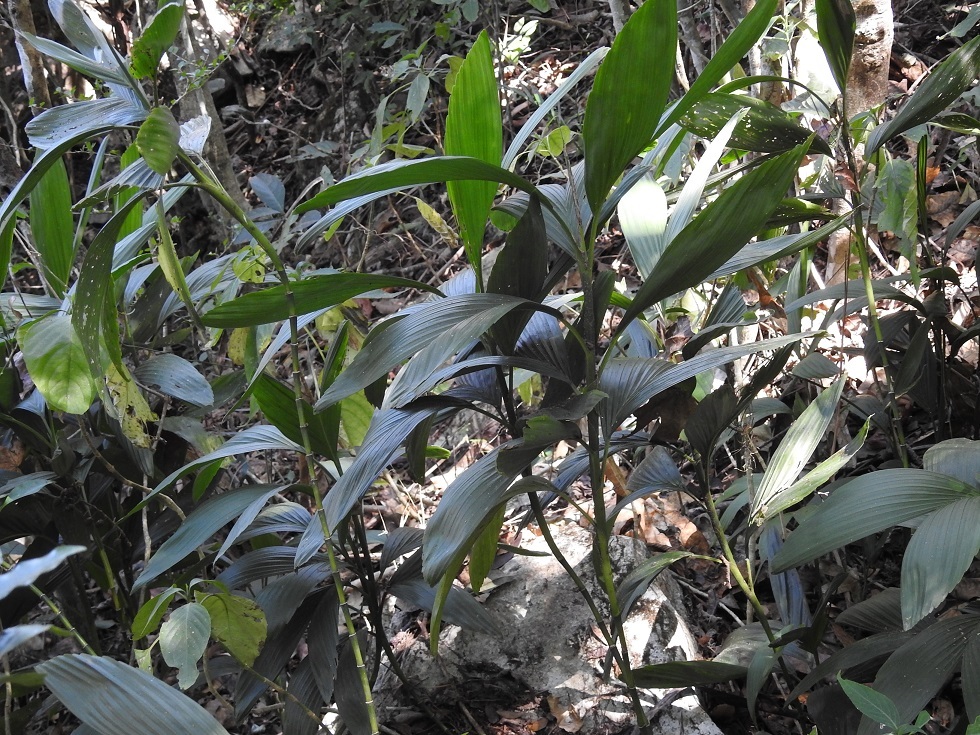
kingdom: Plantae
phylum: Tracheophyta
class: Liliopsida
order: Arecales
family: Arecaceae
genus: Chamaedorea
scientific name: Chamaedorea stolonifera
